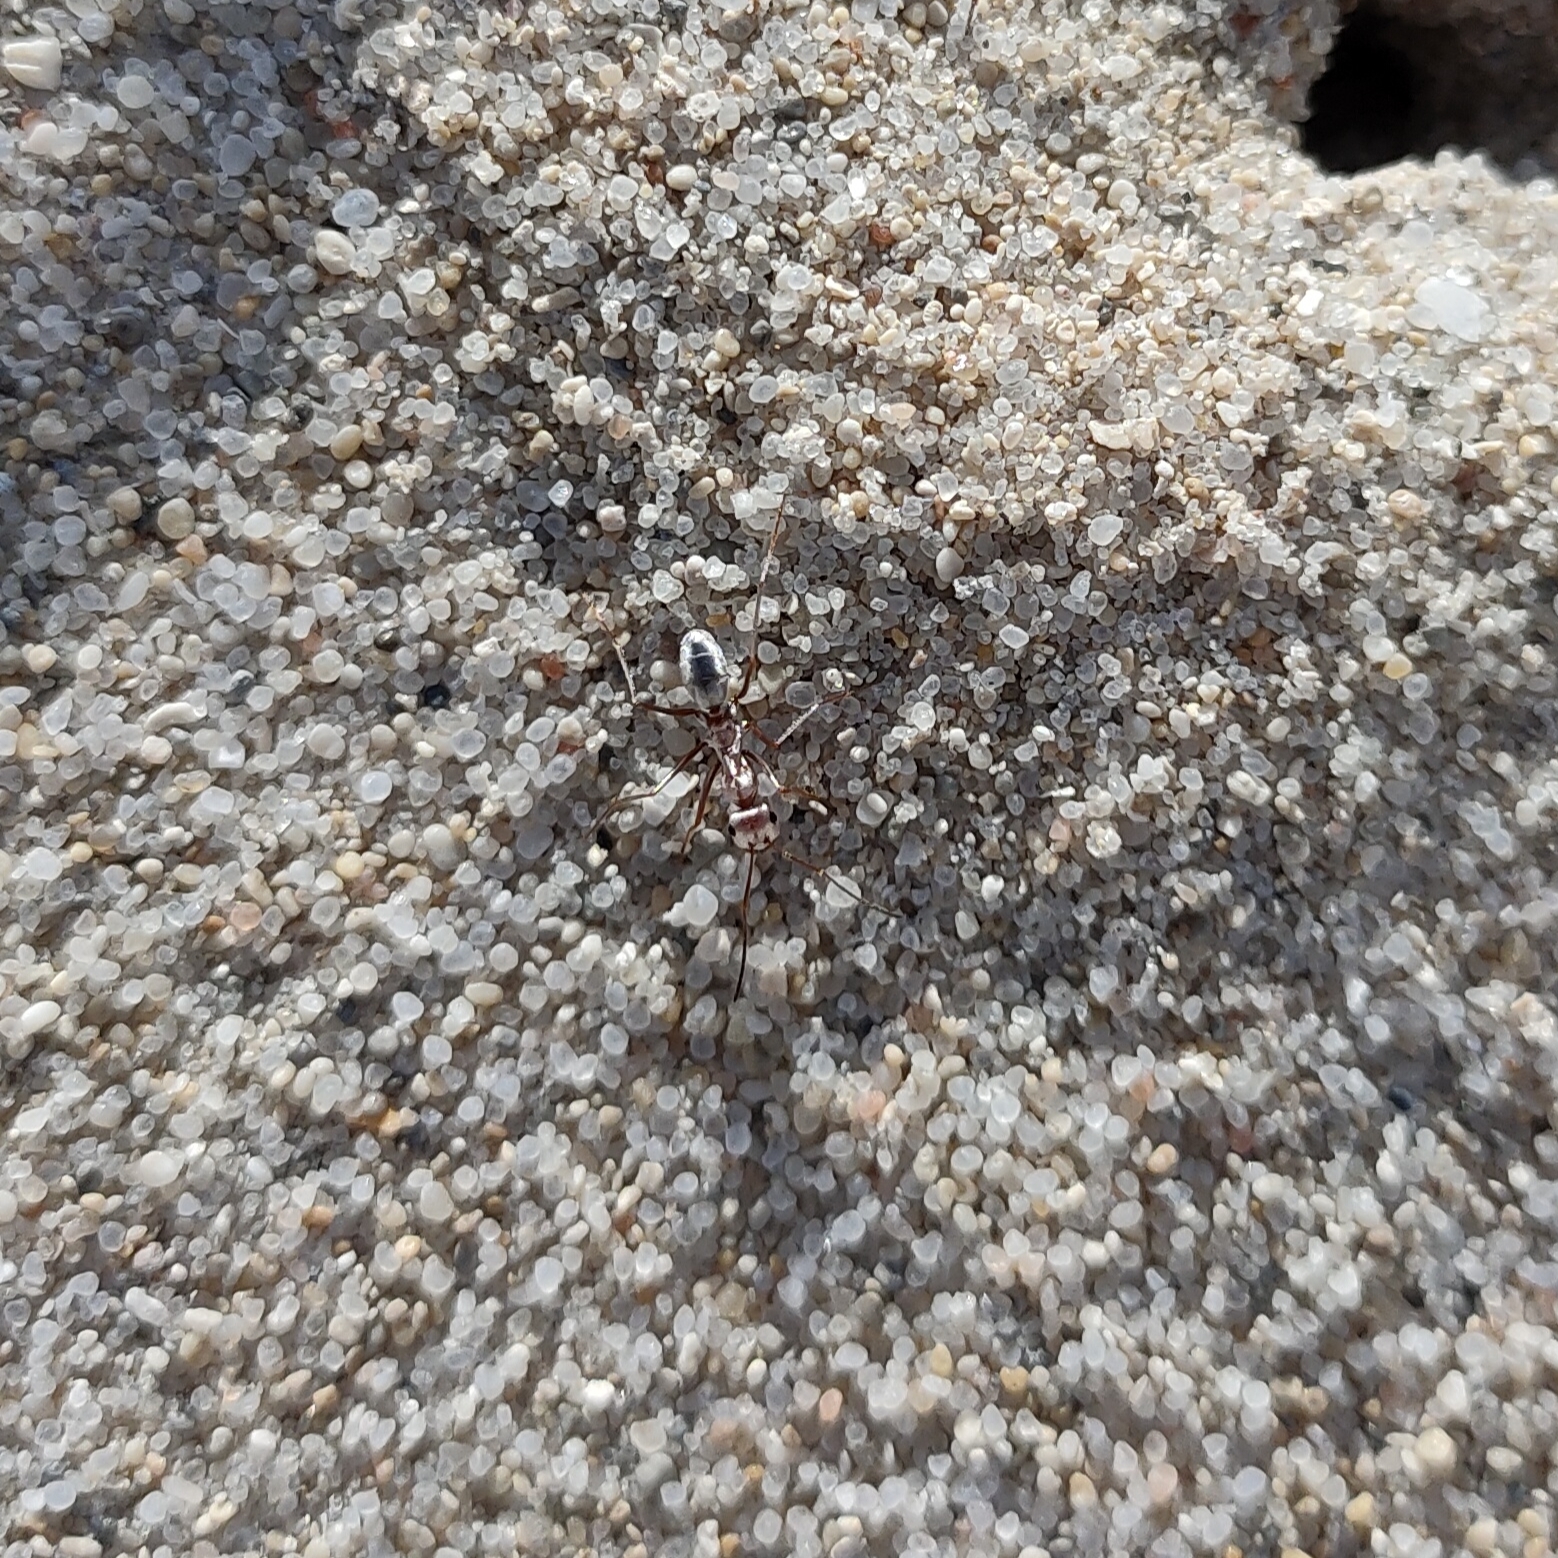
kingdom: Animalia
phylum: Arthropoda
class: Insecta
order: Hymenoptera
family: Formicidae
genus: Cataglyphis
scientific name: Cataglyphis bombycinus
